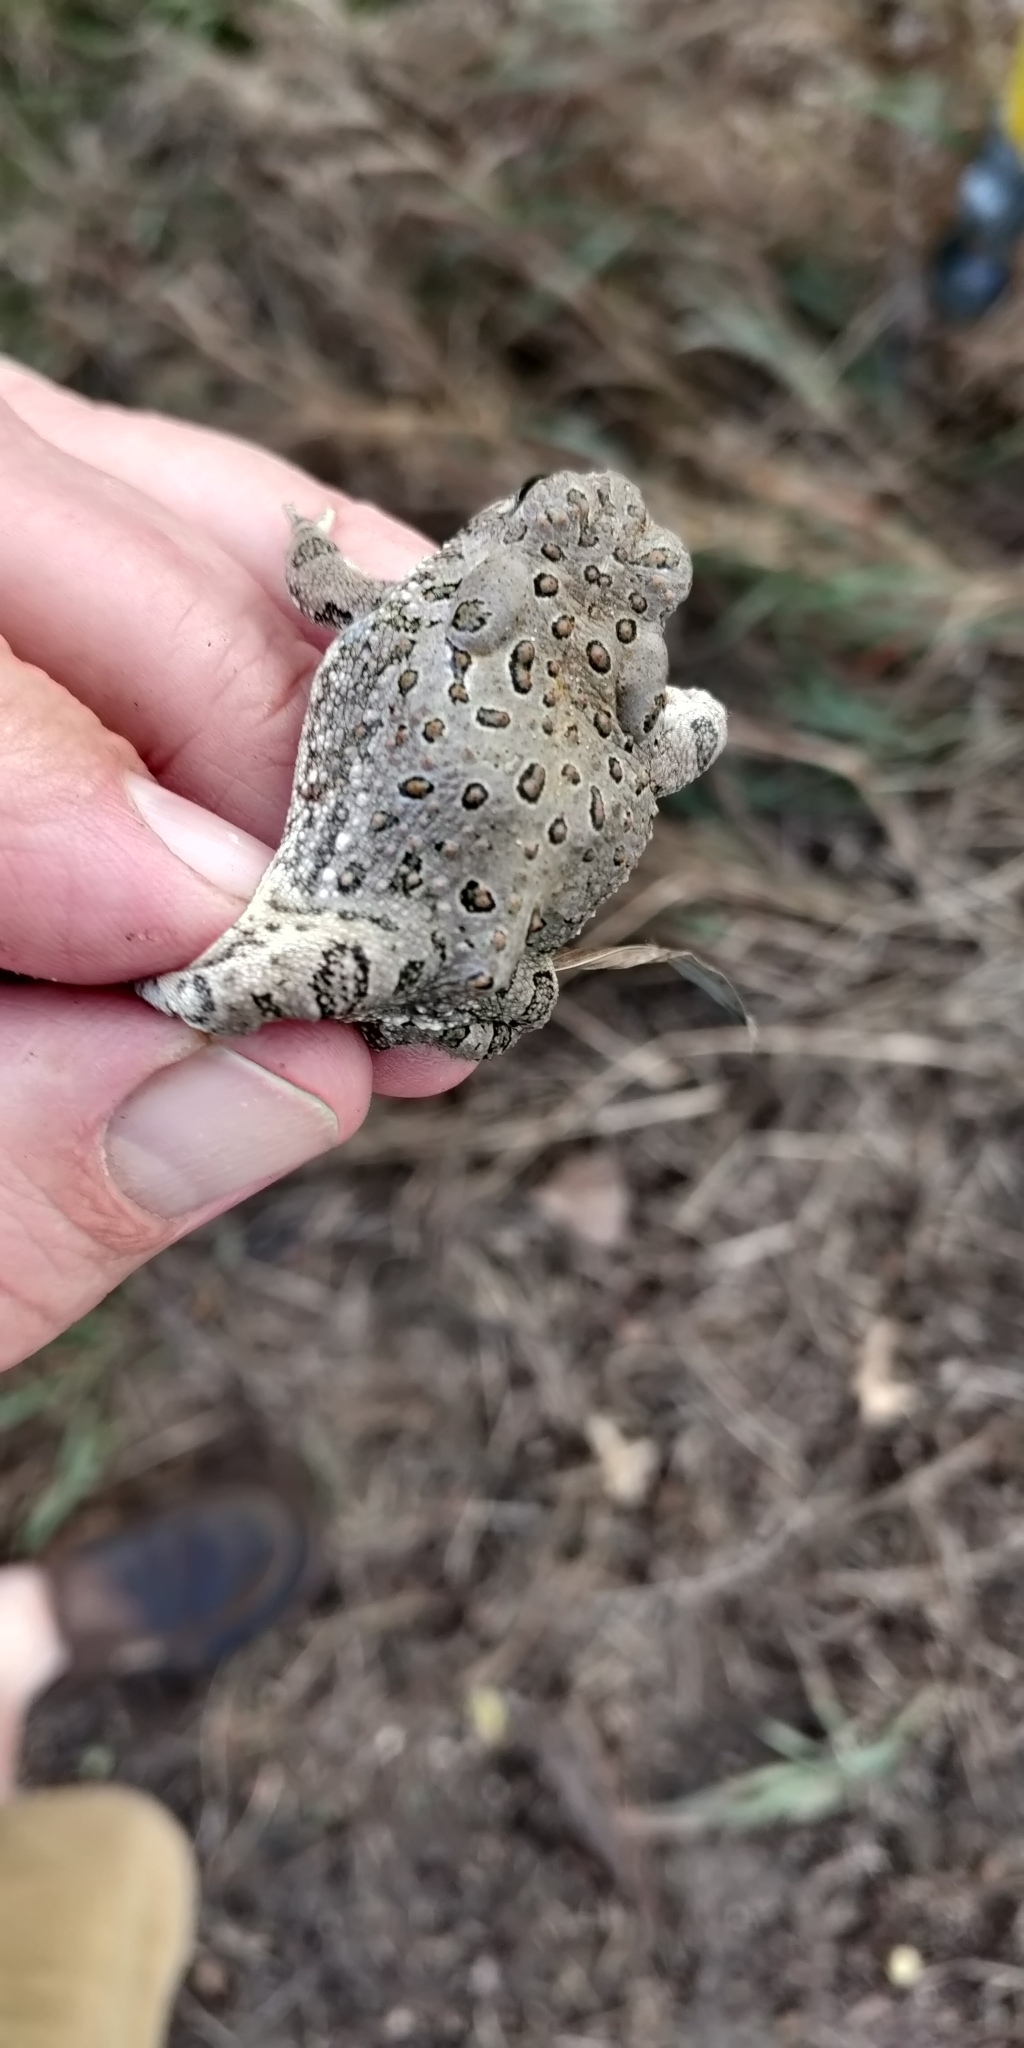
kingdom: Animalia
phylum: Chordata
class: Amphibia
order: Anura
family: Bufonidae
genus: Anaxyrus
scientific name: Anaxyrus woodhousii
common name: Woodhouse's toad
